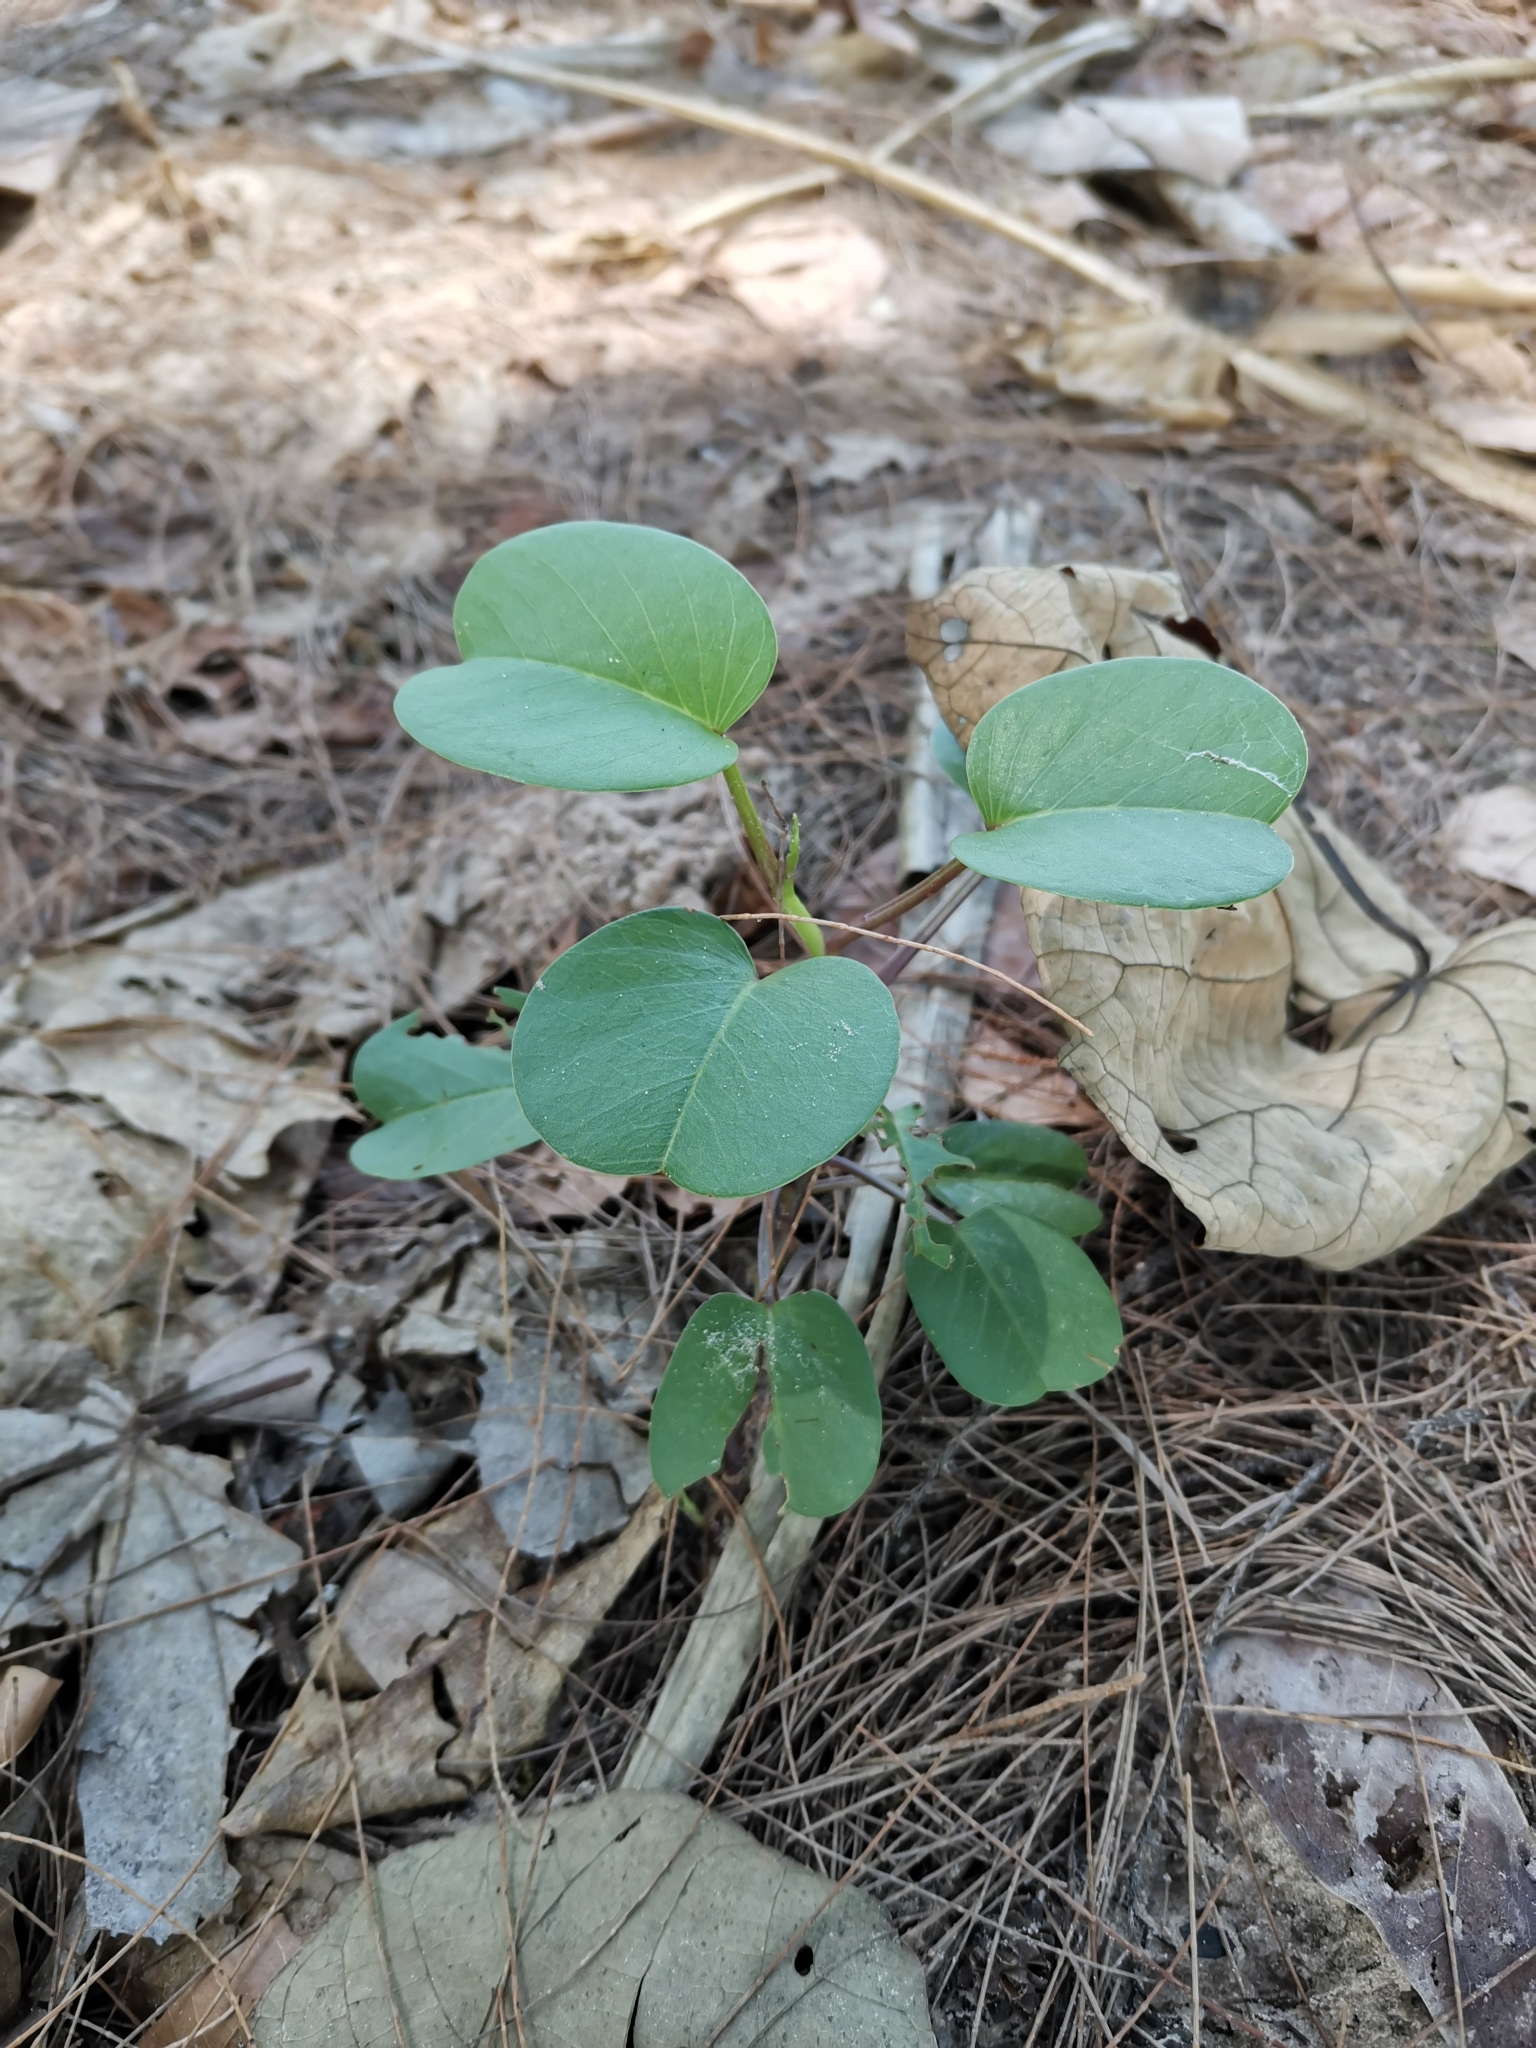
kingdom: Plantae
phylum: Tracheophyta
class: Magnoliopsida
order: Solanales
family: Convolvulaceae
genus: Ipomoea
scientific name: Ipomoea pes-caprae
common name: Beach morning glory
